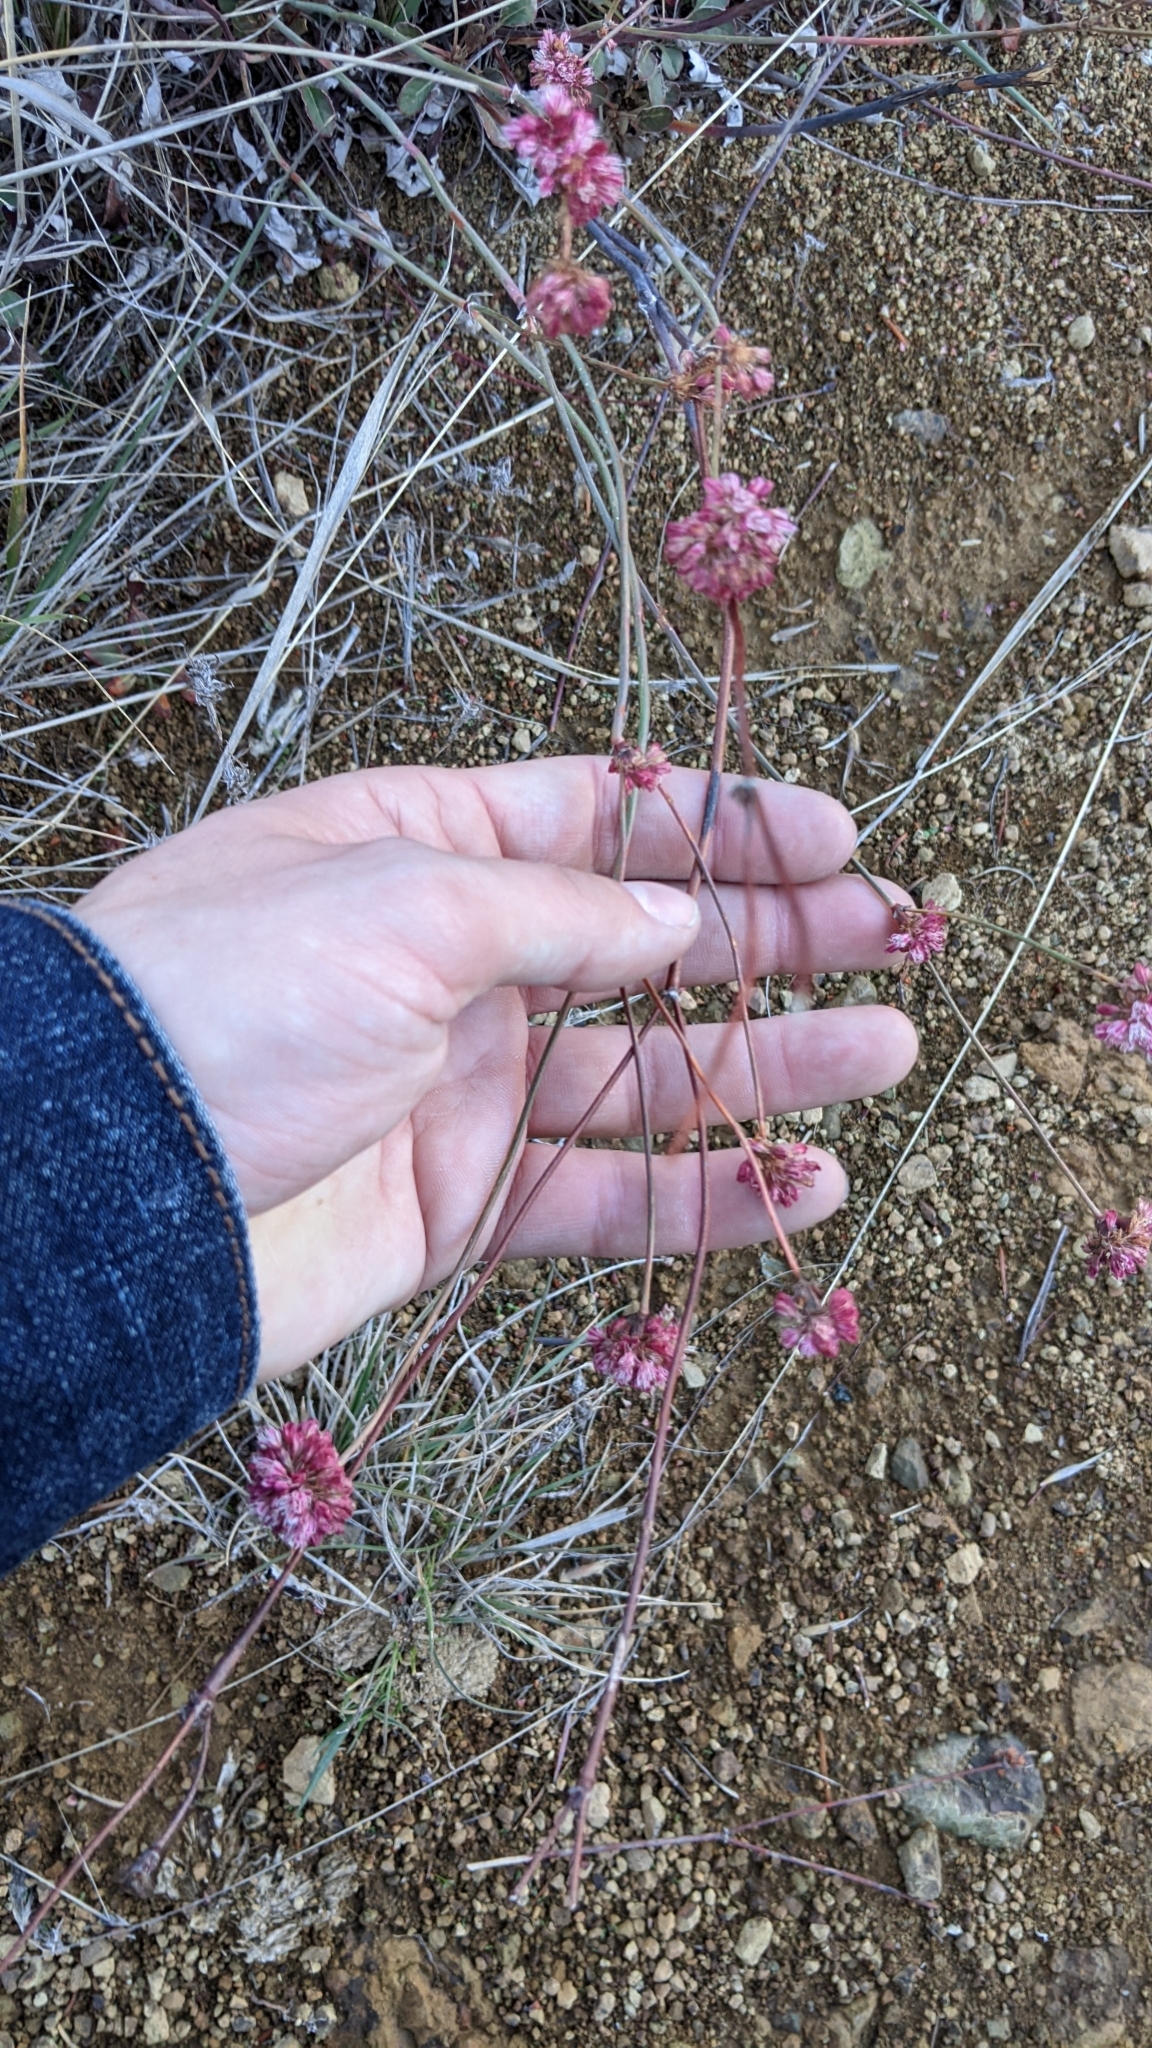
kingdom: Plantae
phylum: Tracheophyta
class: Magnoliopsida
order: Caryophyllales
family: Polygonaceae
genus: Eriogonum
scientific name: Eriogonum nudum
